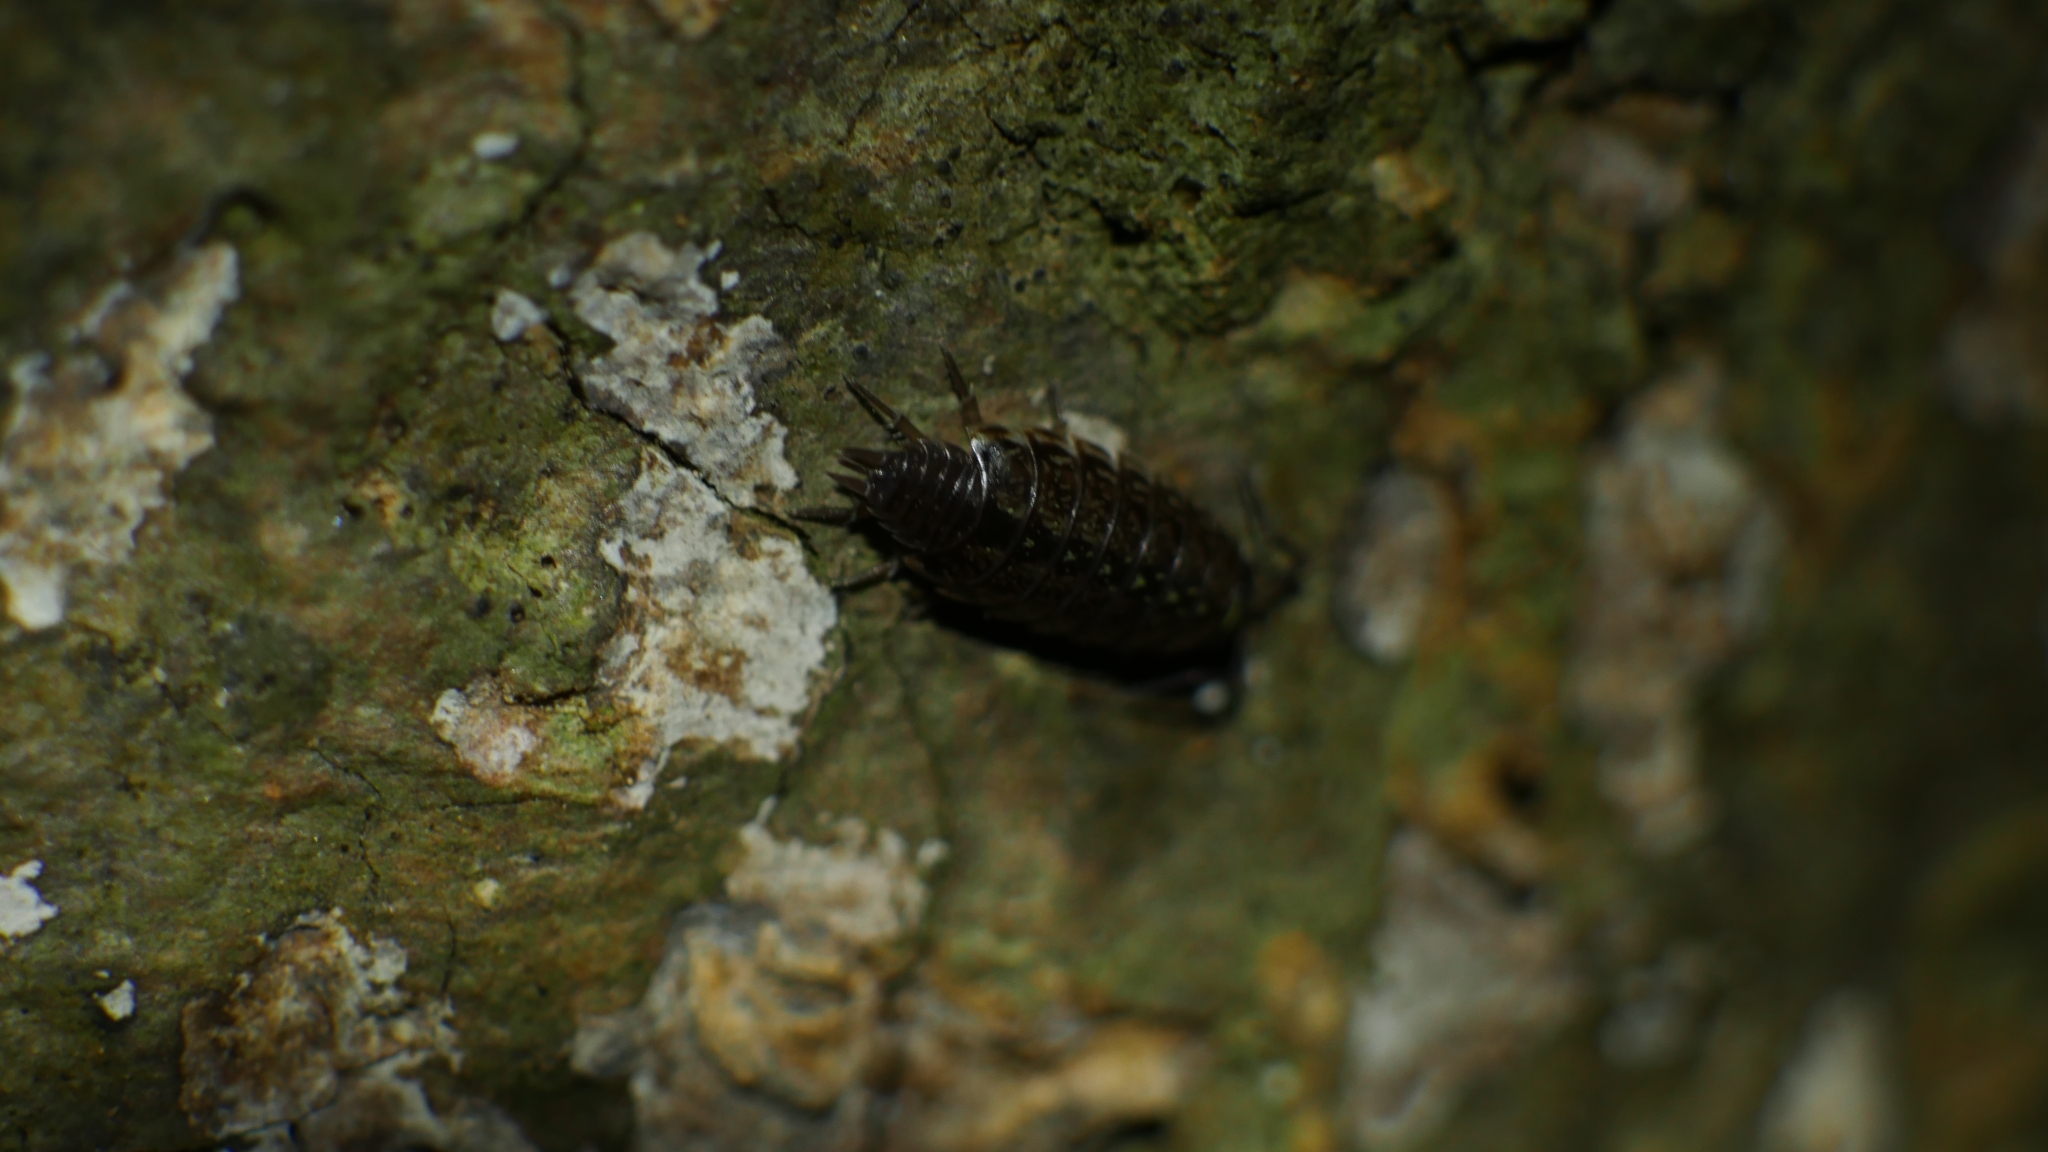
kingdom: Animalia
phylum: Arthropoda
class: Malacostraca
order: Isopoda
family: Philosciidae
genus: Philoscia
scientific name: Philoscia muscorum
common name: Common striped woodlouse
